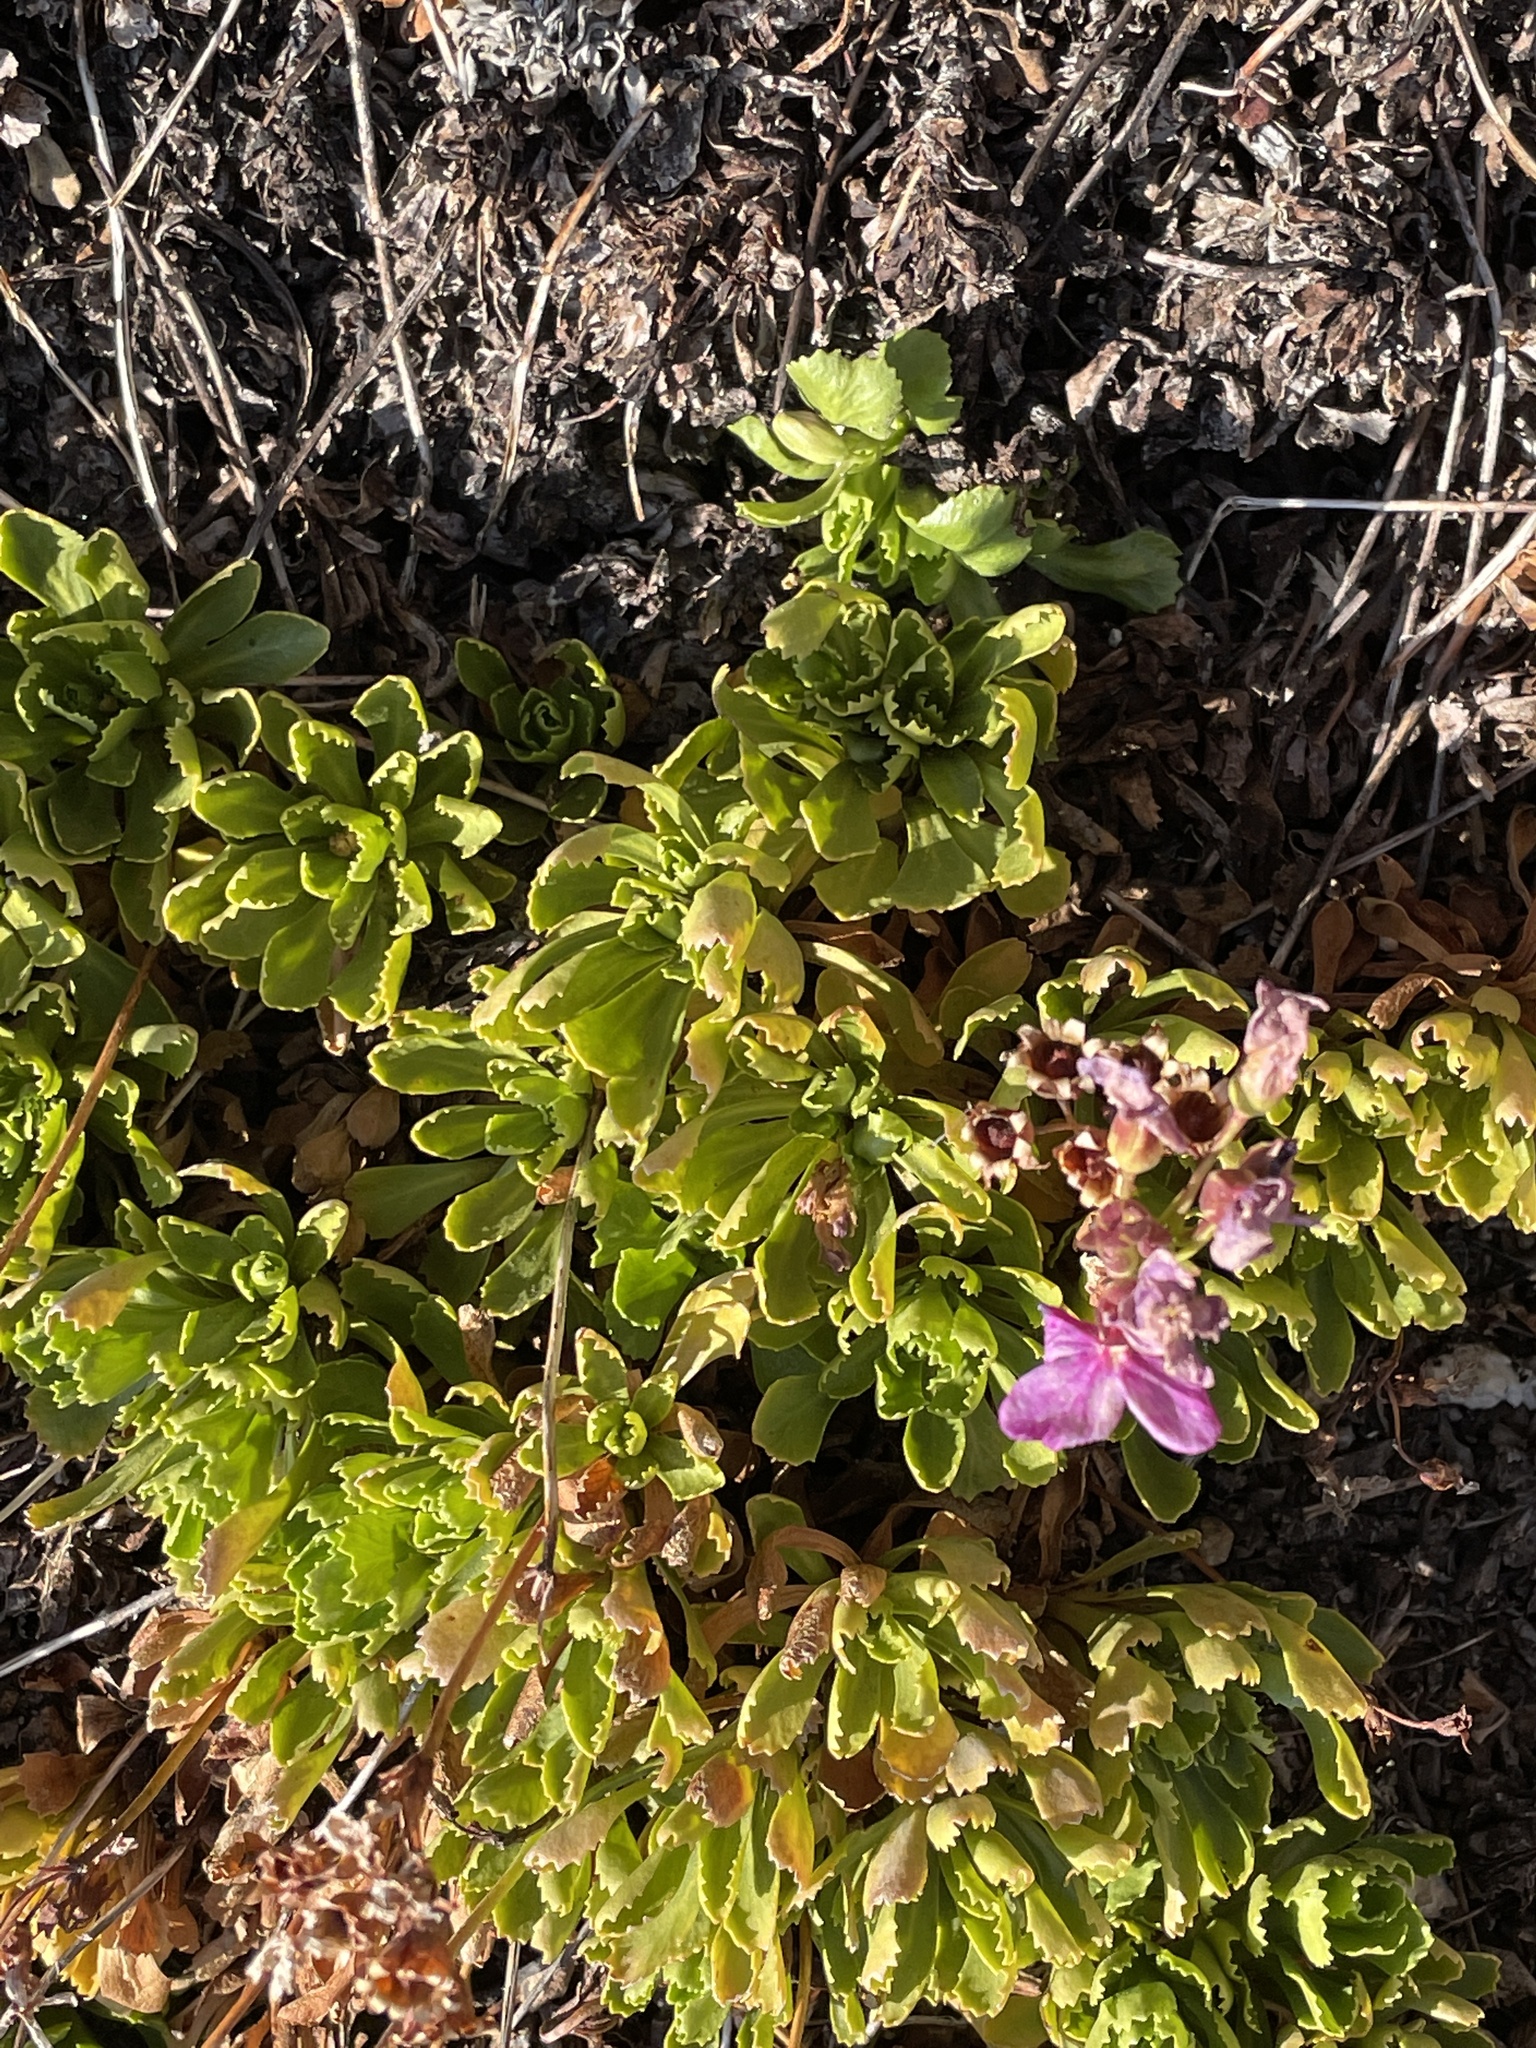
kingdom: Plantae
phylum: Tracheophyta
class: Magnoliopsida
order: Ericales
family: Primulaceae
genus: Primula
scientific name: Primula suffrutescens
